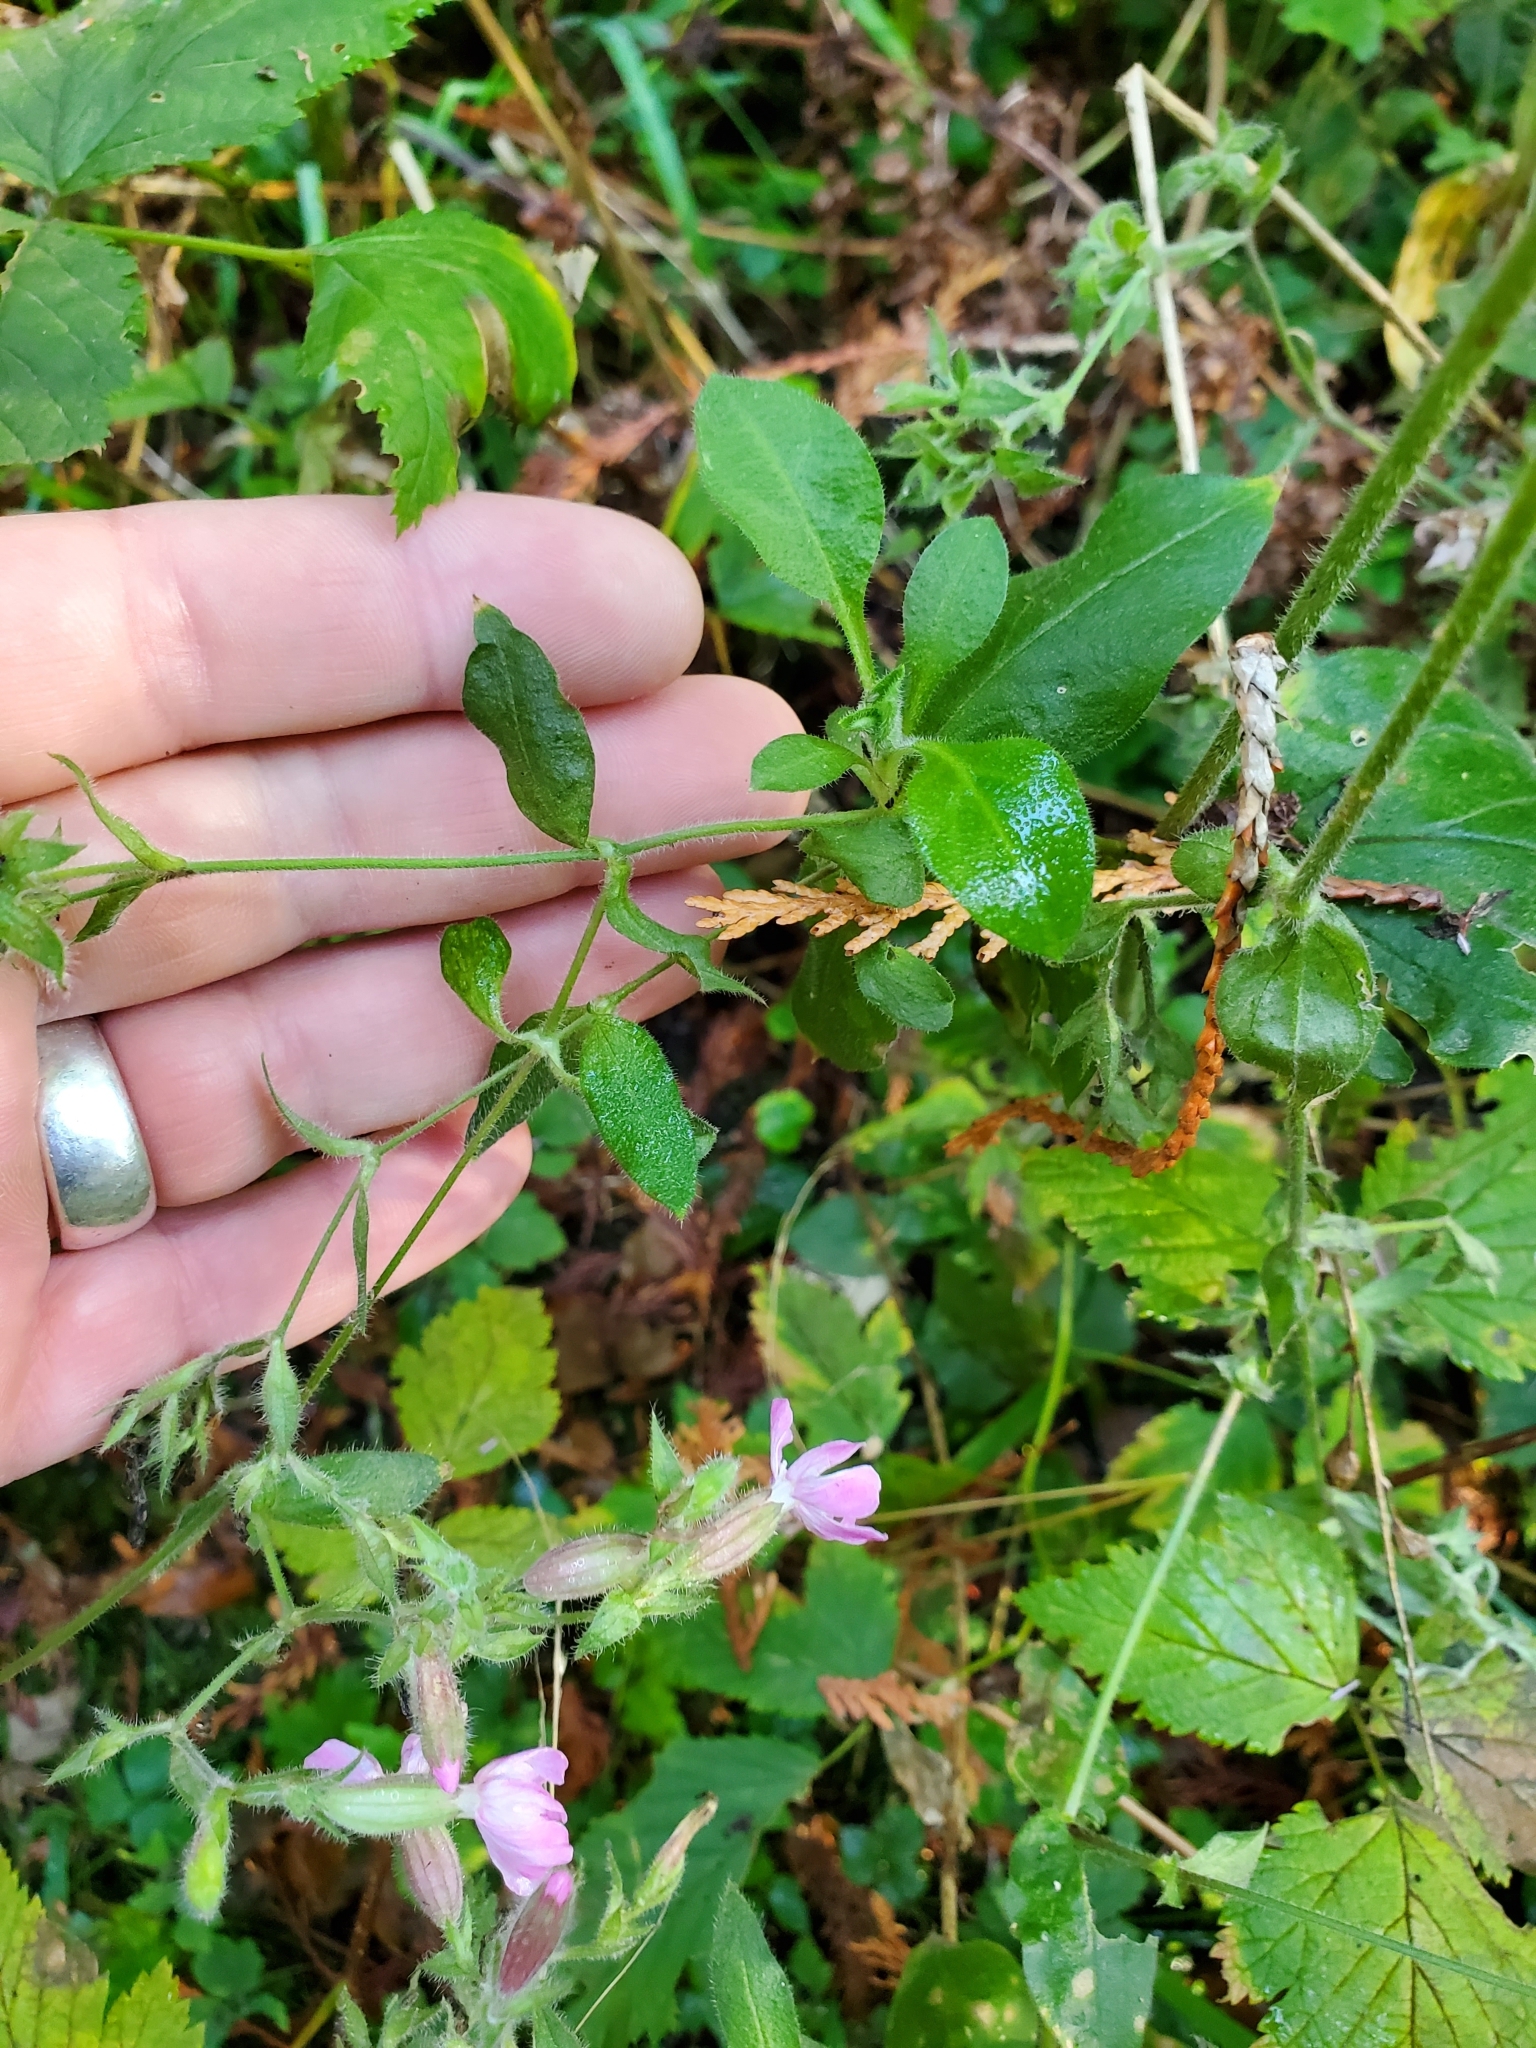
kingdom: Plantae
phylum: Tracheophyta
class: Magnoliopsida
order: Caryophyllales
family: Caryophyllaceae
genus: Silene
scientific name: Silene dioica
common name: Red campion
